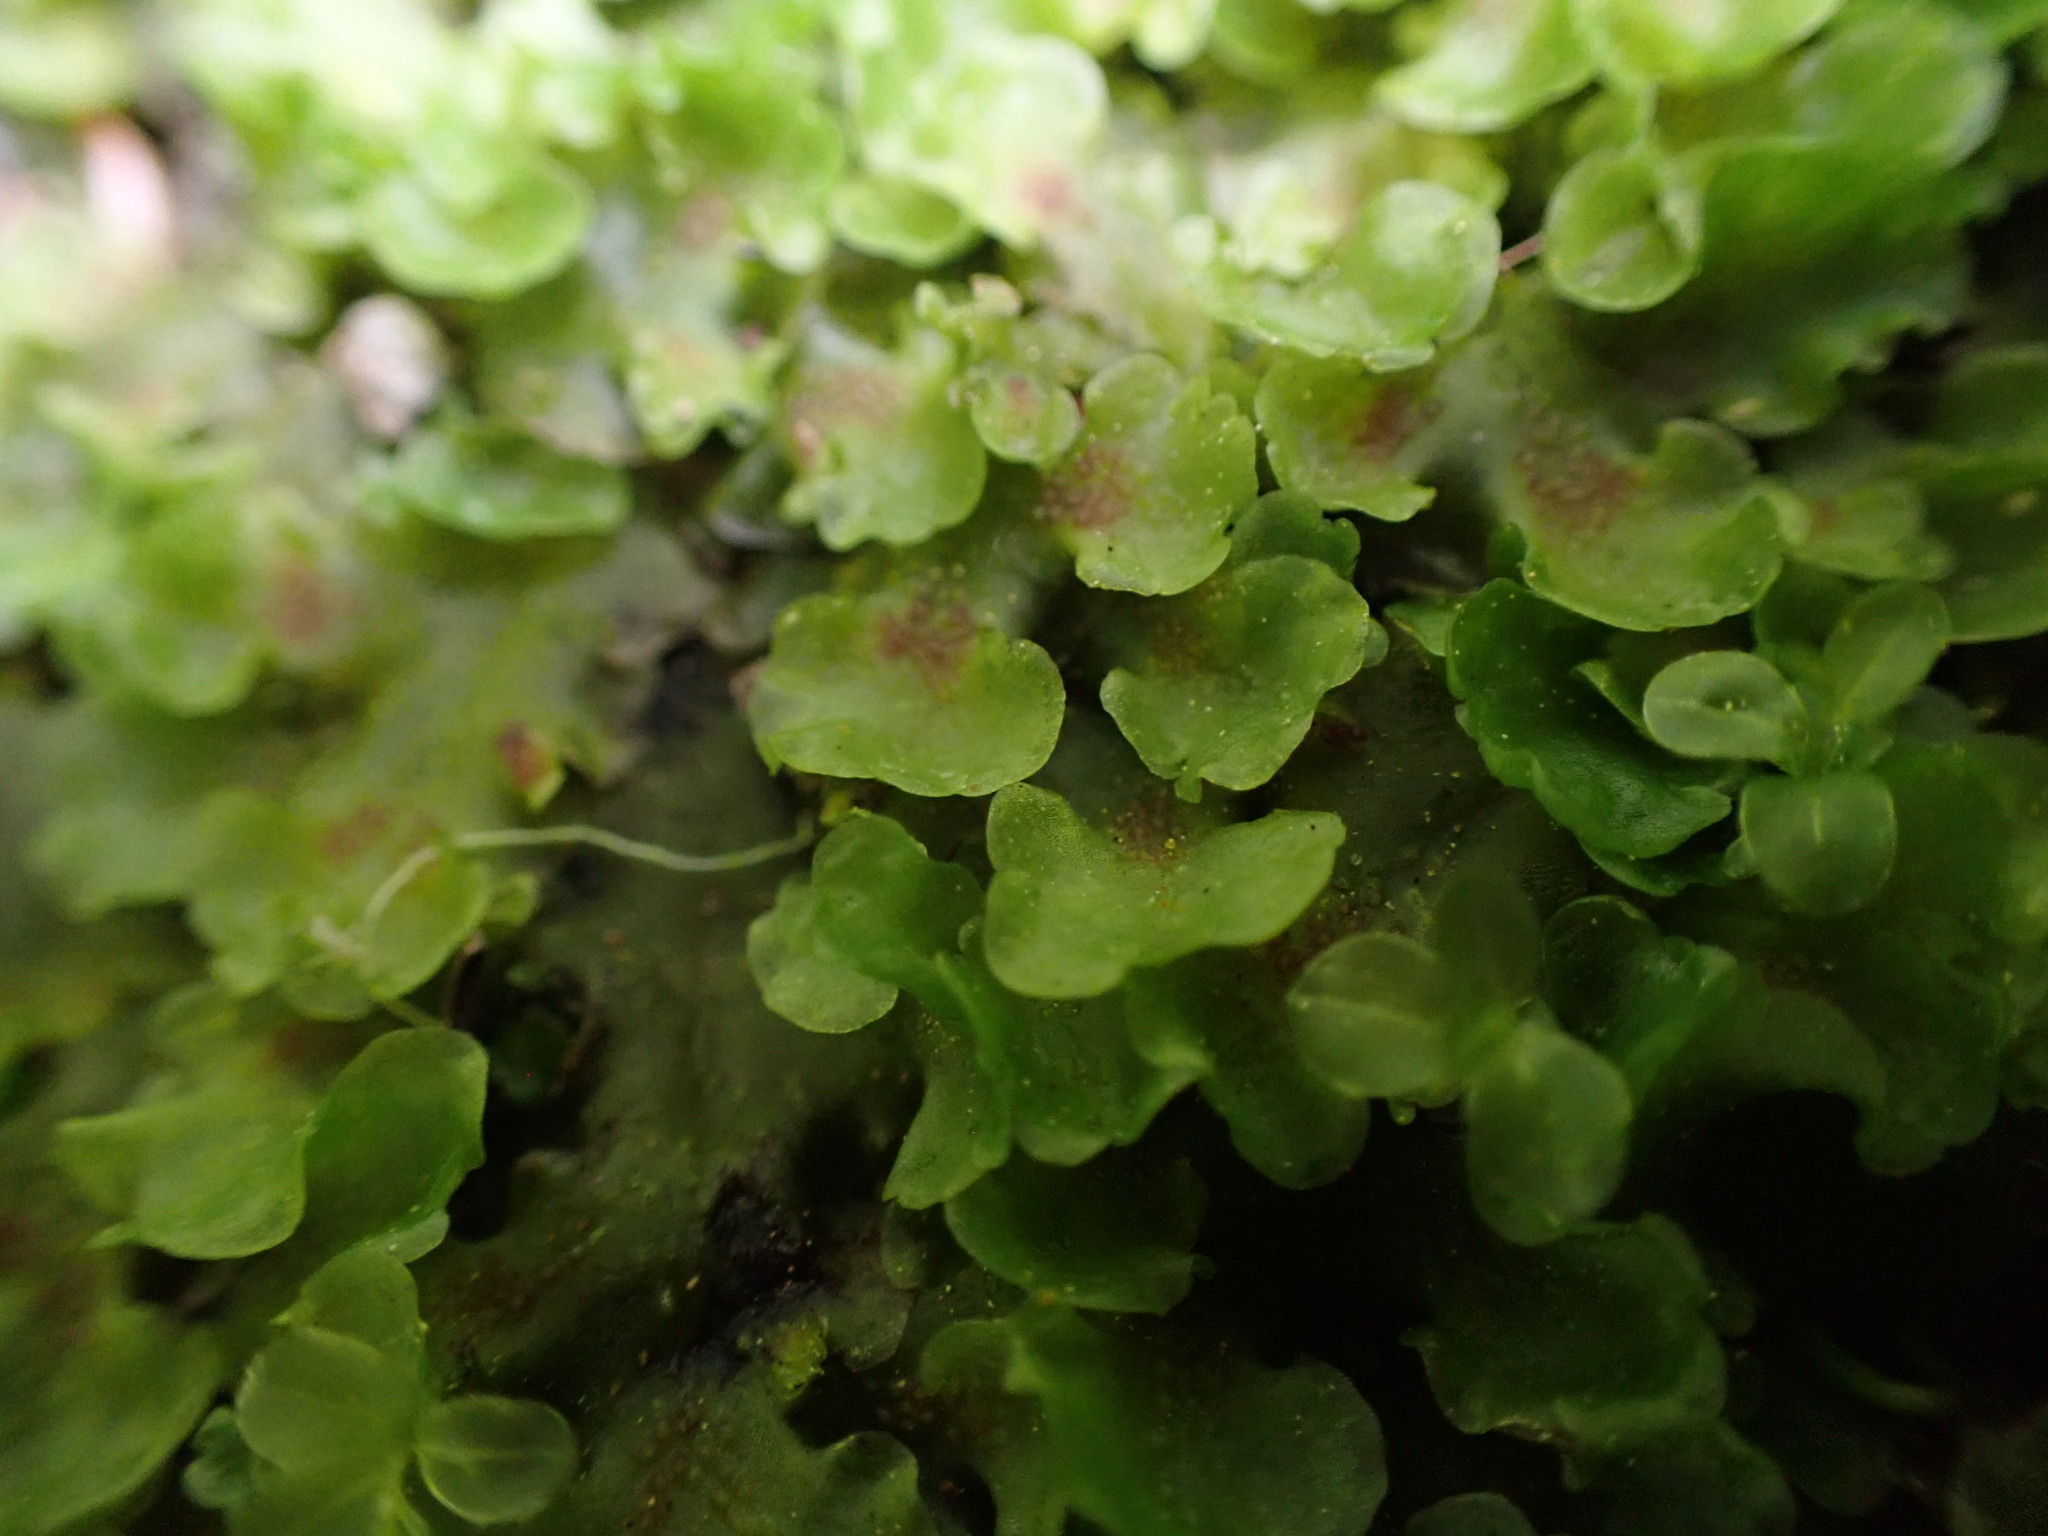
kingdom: Plantae
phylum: Marchantiophyta
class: Jungermanniopsida
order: Pelliales
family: Pelliaceae
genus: Pellia
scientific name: Pellia neesiana
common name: Nees  pellia
